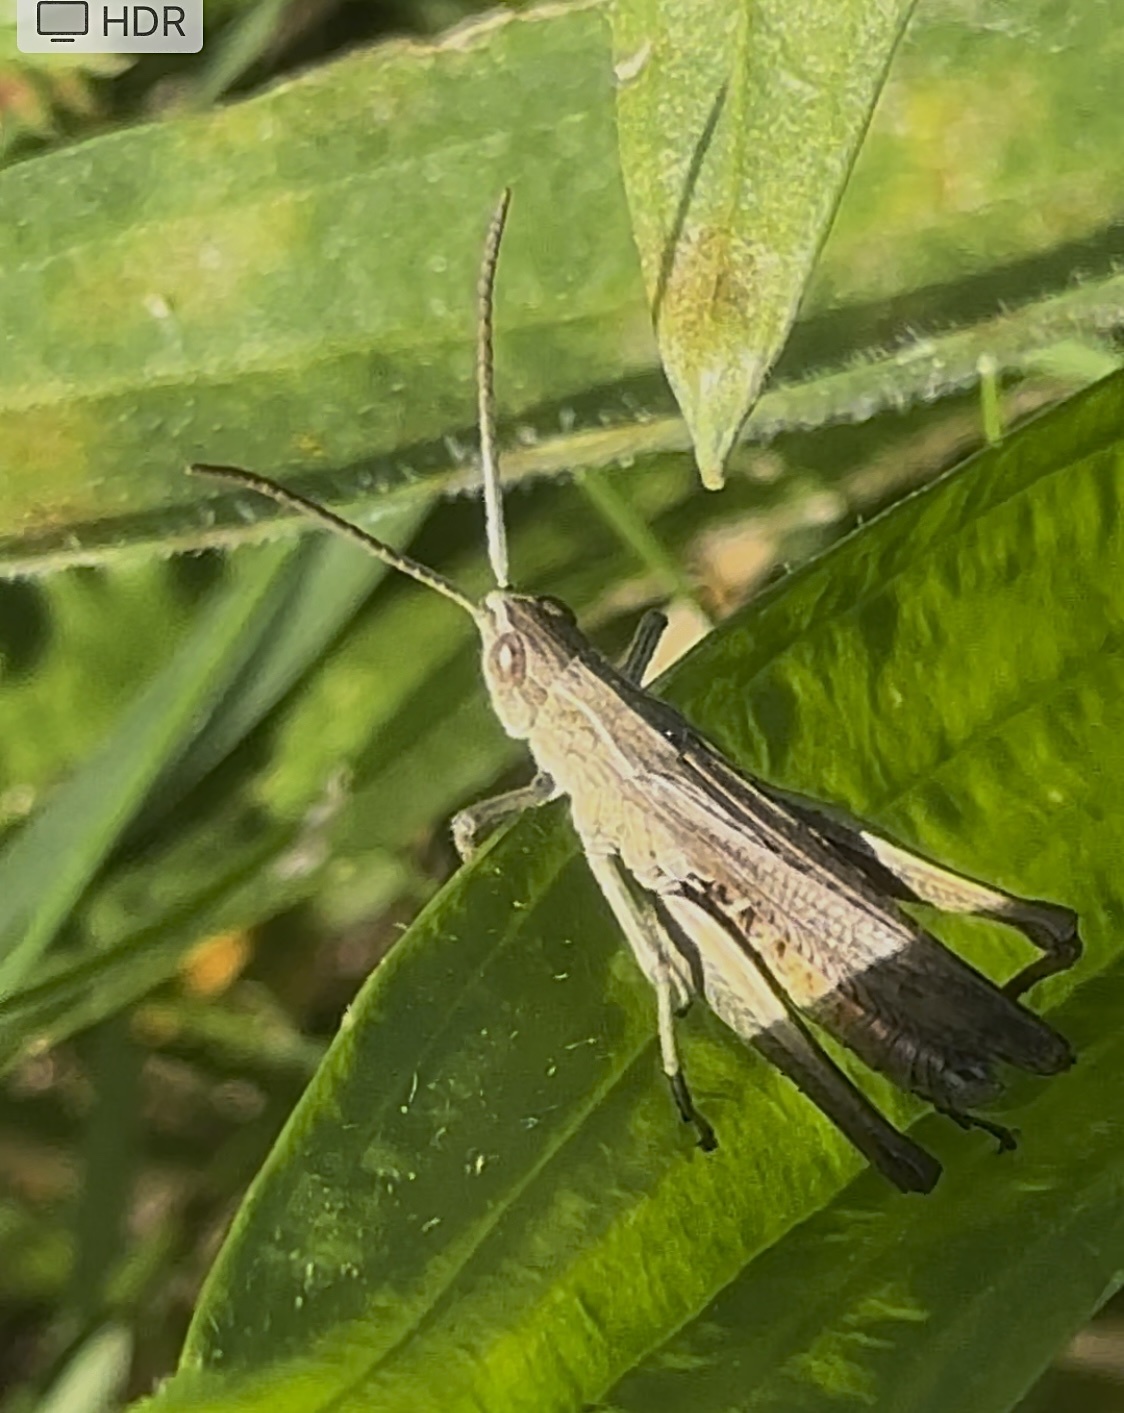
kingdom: Animalia
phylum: Arthropoda
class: Insecta
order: Orthoptera
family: Acrididae
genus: Chorthippus
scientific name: Chorthippus dorsatus
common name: Steppe grasshopper
